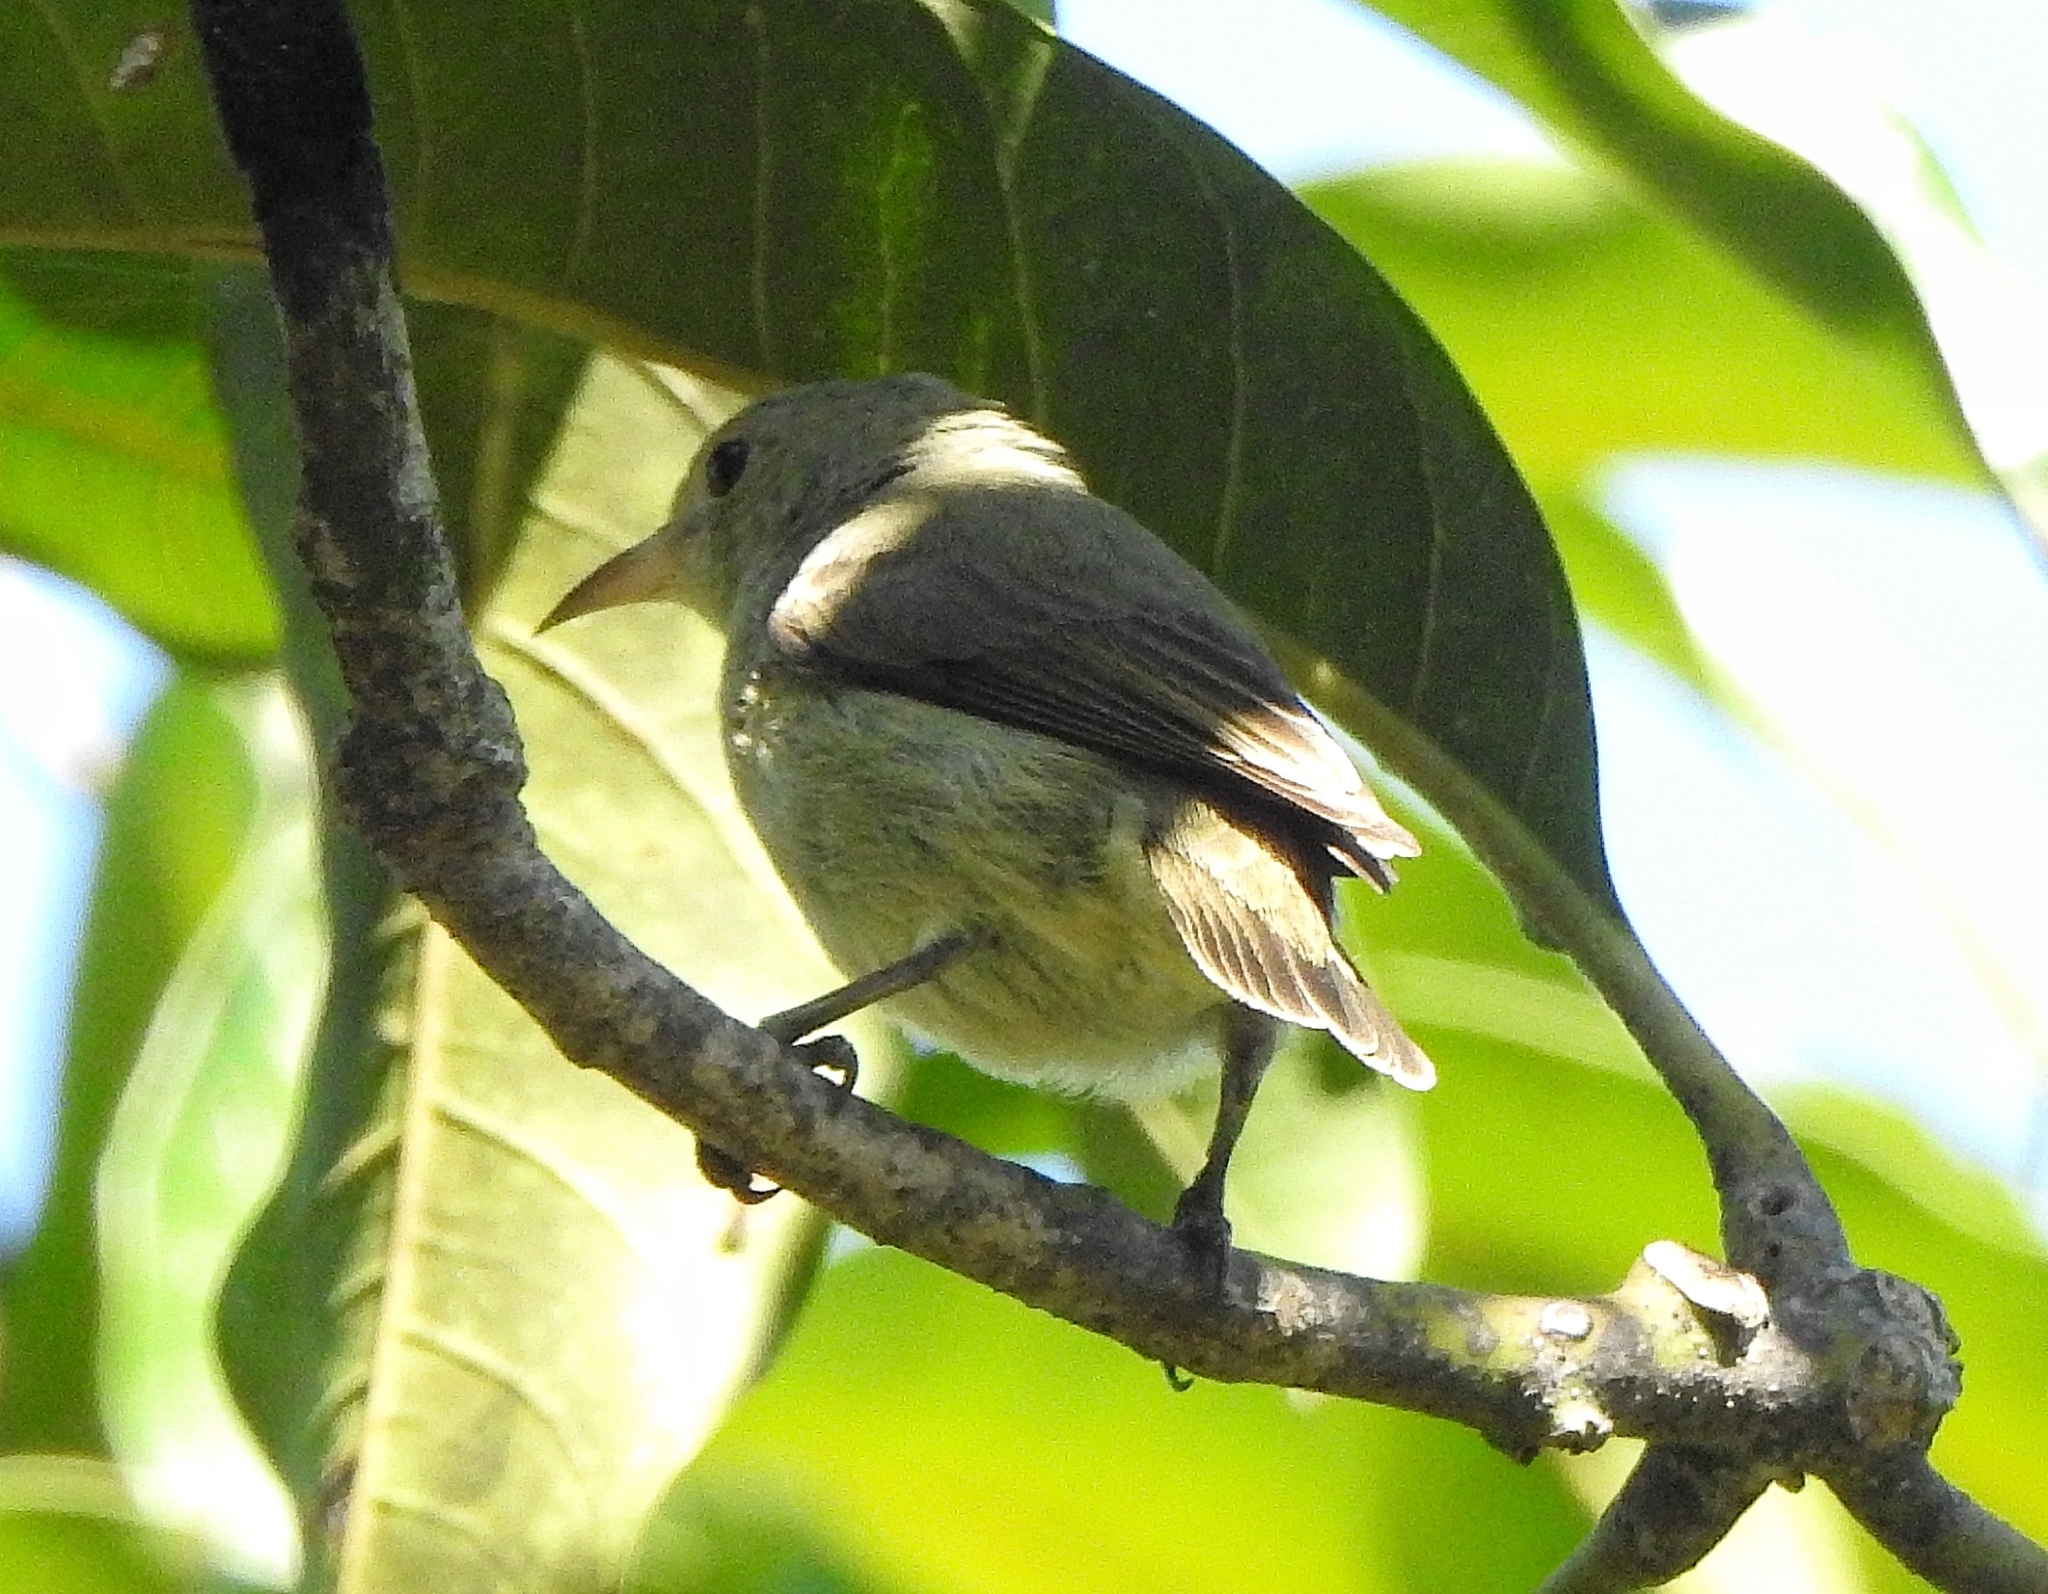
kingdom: Animalia
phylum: Chordata
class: Aves
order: Passeriformes
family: Dicaeidae
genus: Dicaeum
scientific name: Dicaeum erythrorhynchos
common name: Pale-billed flowerpecker
